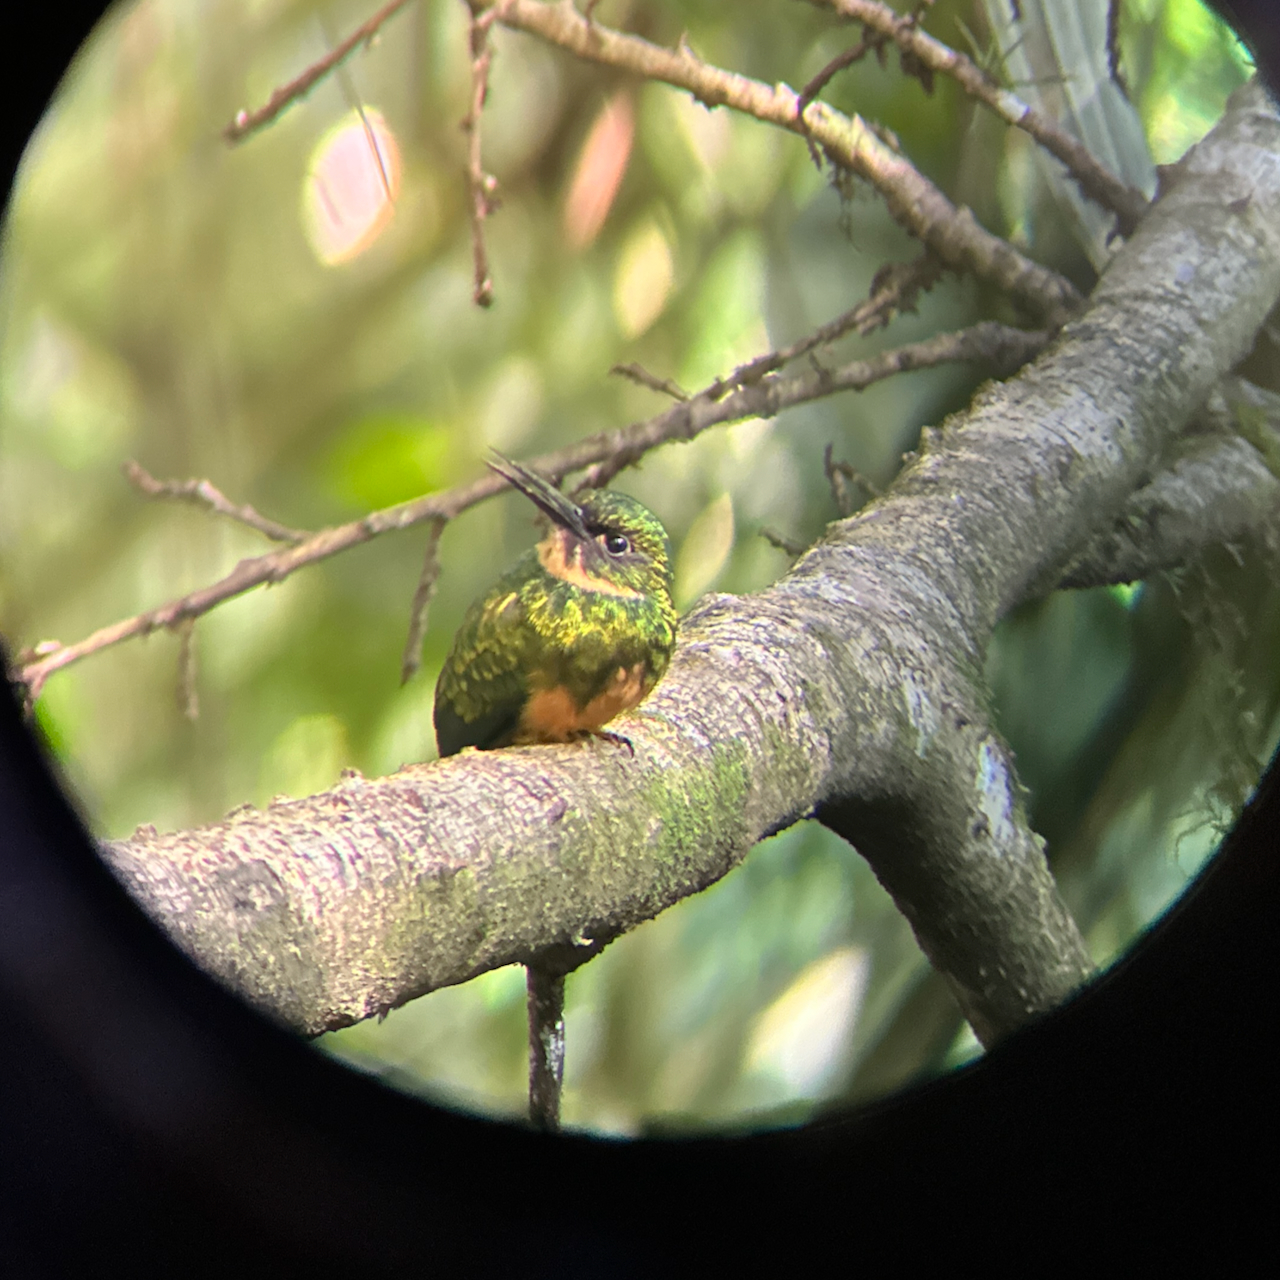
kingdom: Animalia
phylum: Chordata
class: Aves
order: Piciformes
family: Galbulidae
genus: Galbula
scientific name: Galbula ruficauda
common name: Rufous-tailed jacamar
